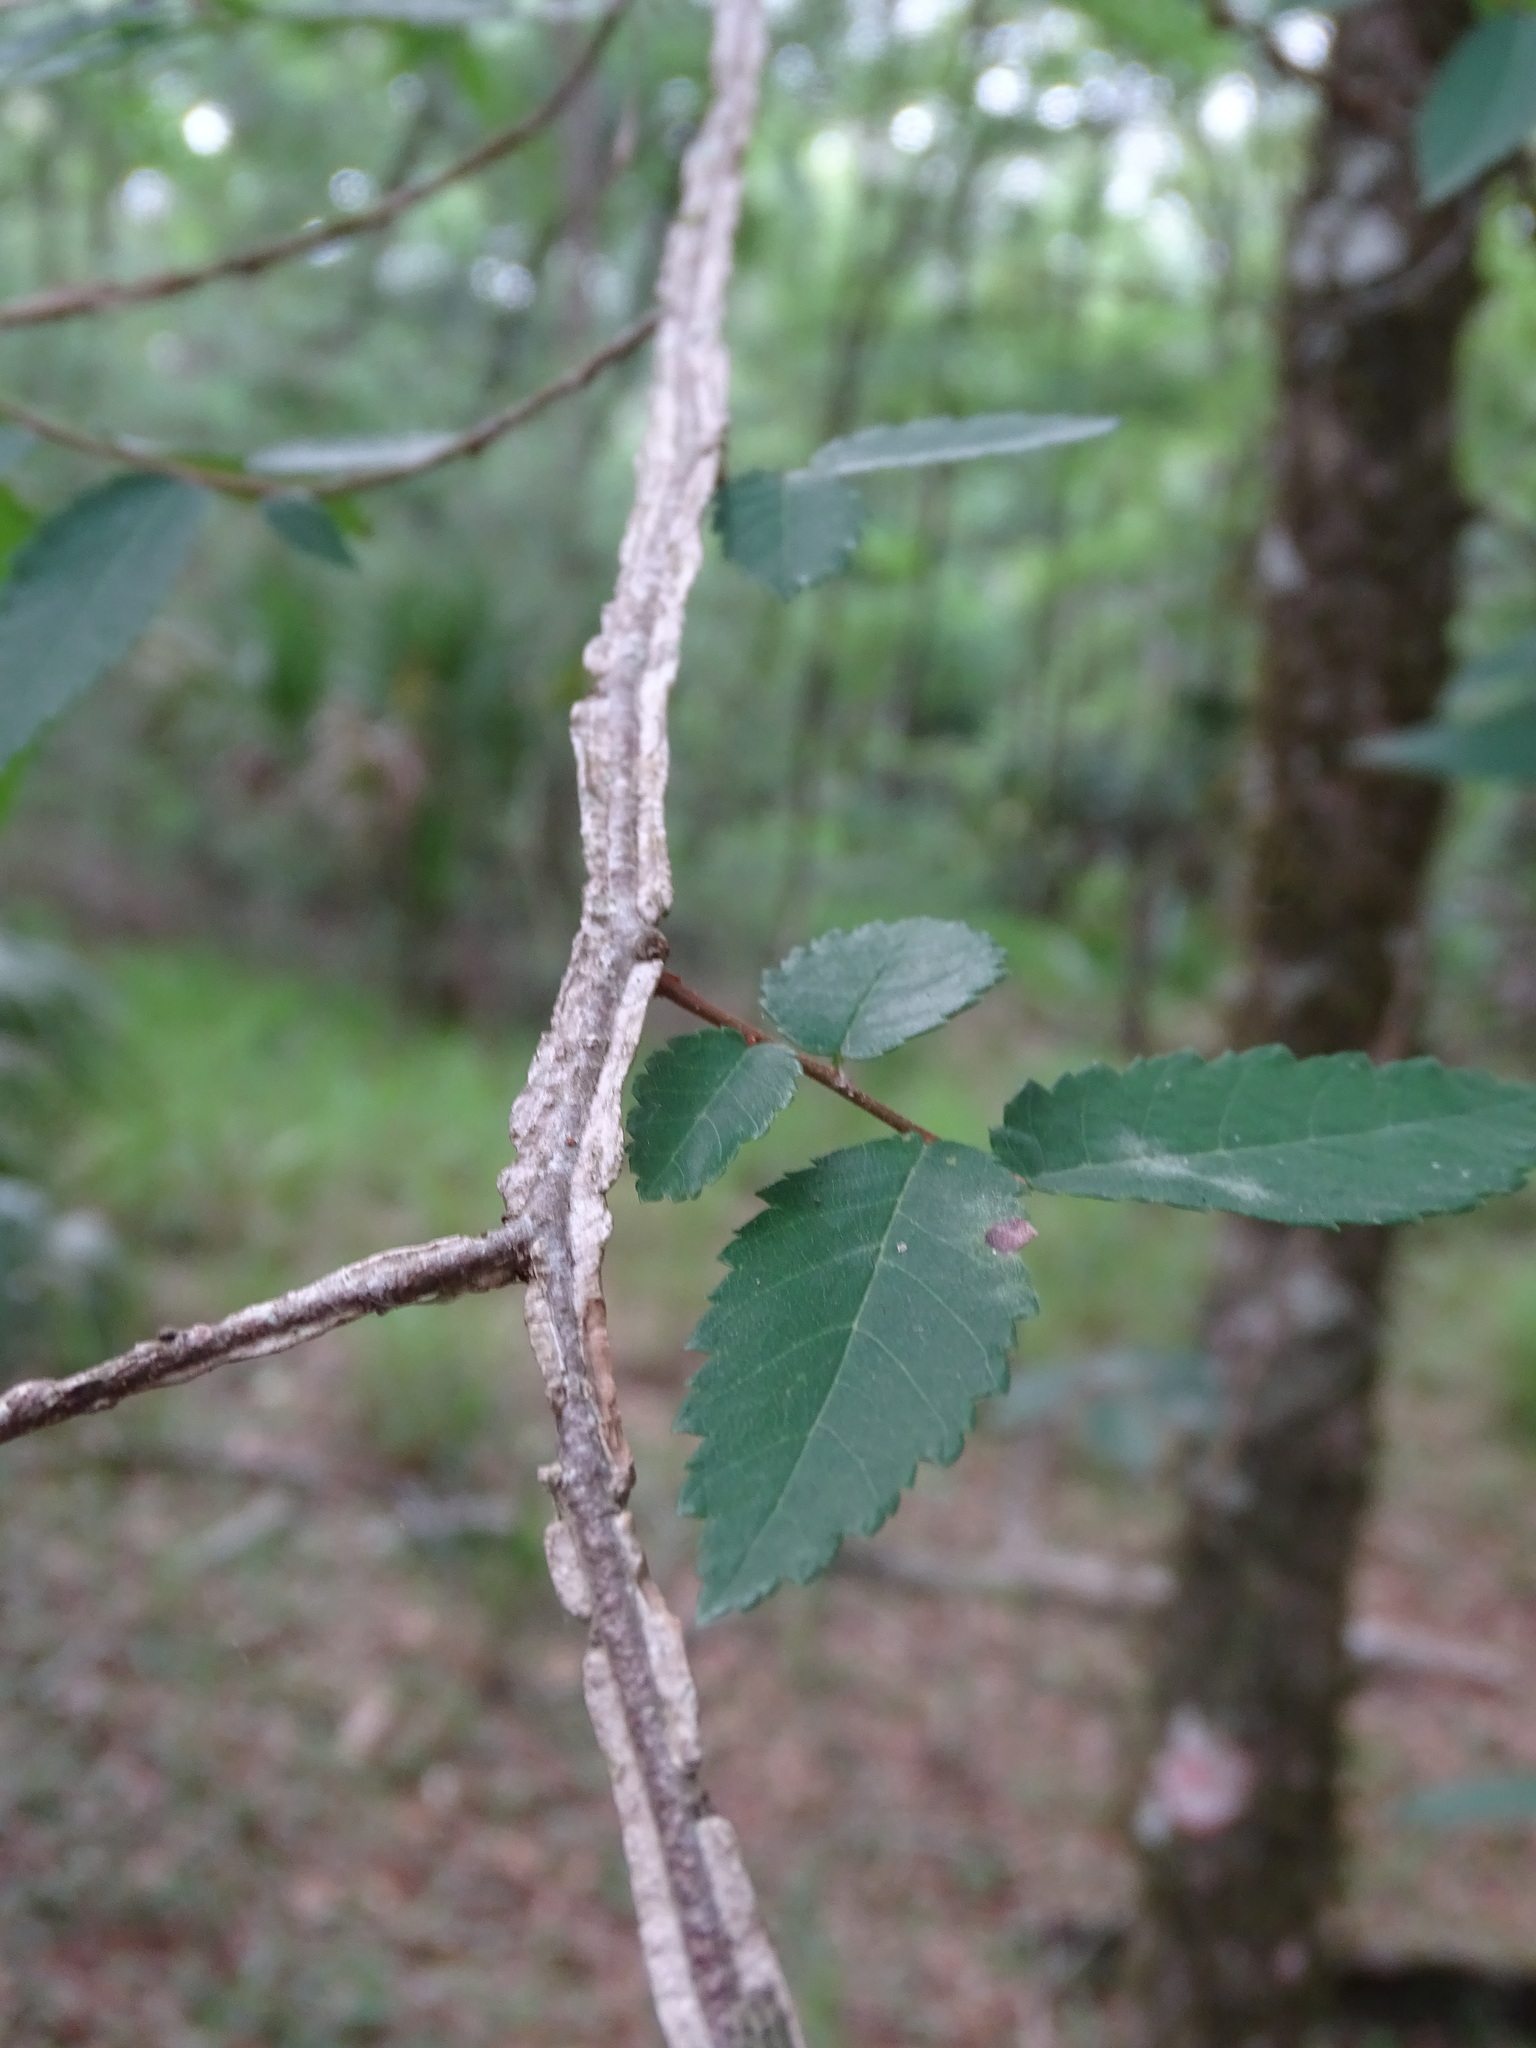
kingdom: Plantae
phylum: Tracheophyta
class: Magnoliopsida
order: Rosales
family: Ulmaceae
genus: Ulmus
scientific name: Ulmus alata
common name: Winged elm
